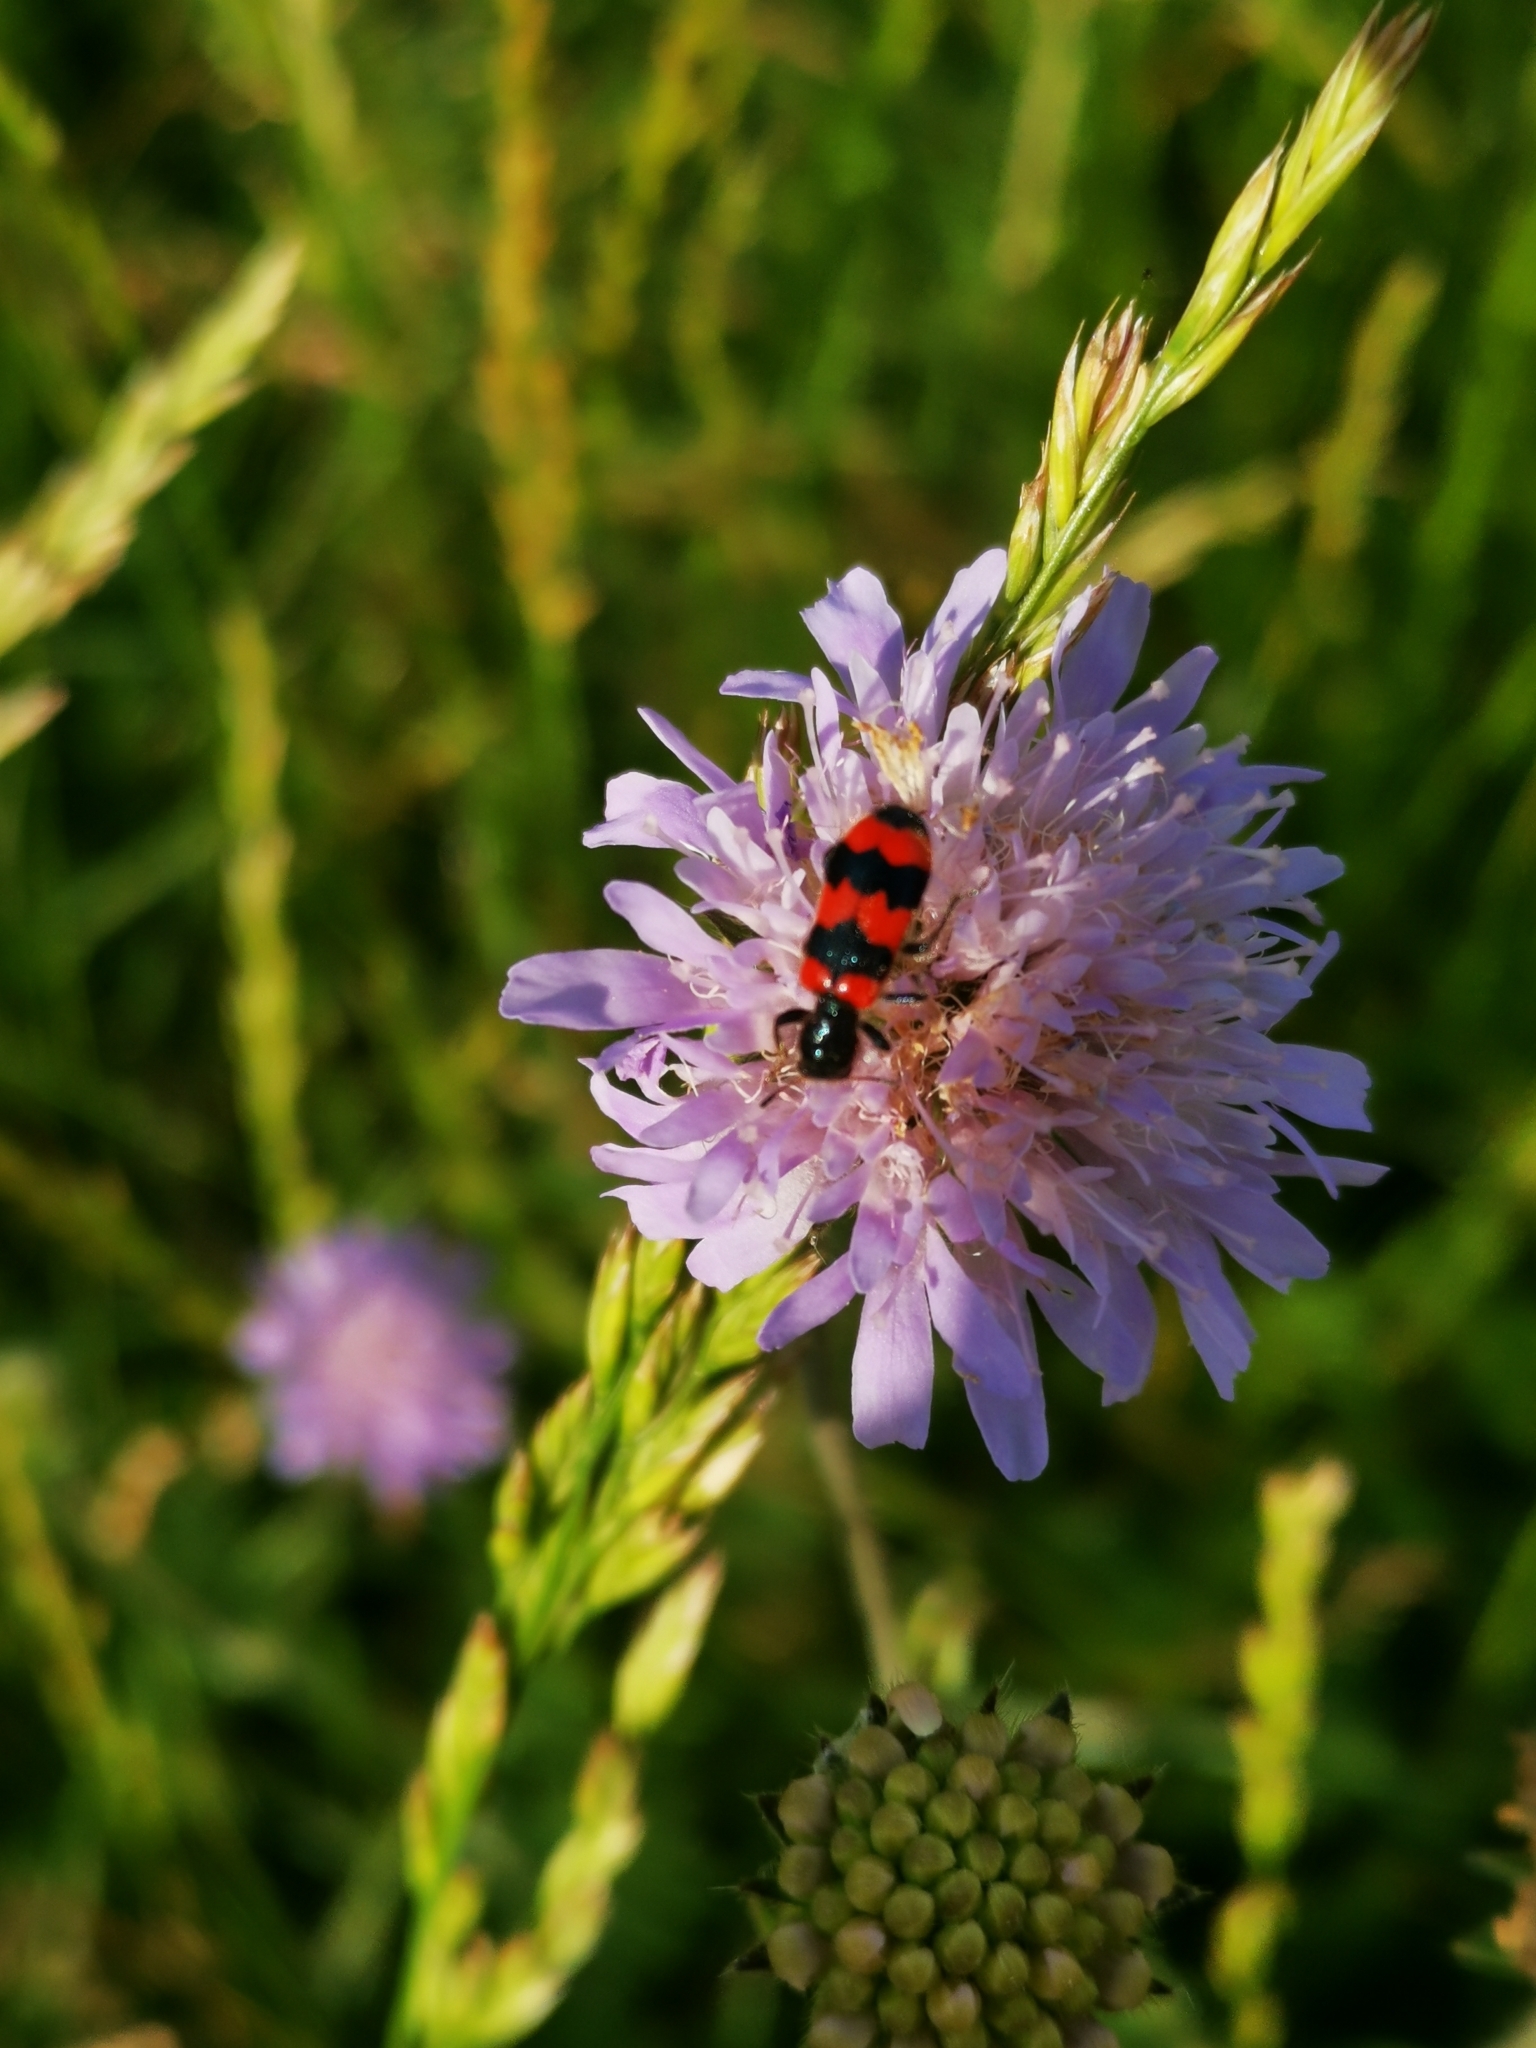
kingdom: Animalia
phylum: Arthropoda
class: Insecta
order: Coleoptera
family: Cleridae
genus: Trichodes
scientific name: Trichodes apiarius
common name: Bee-eating beetle
